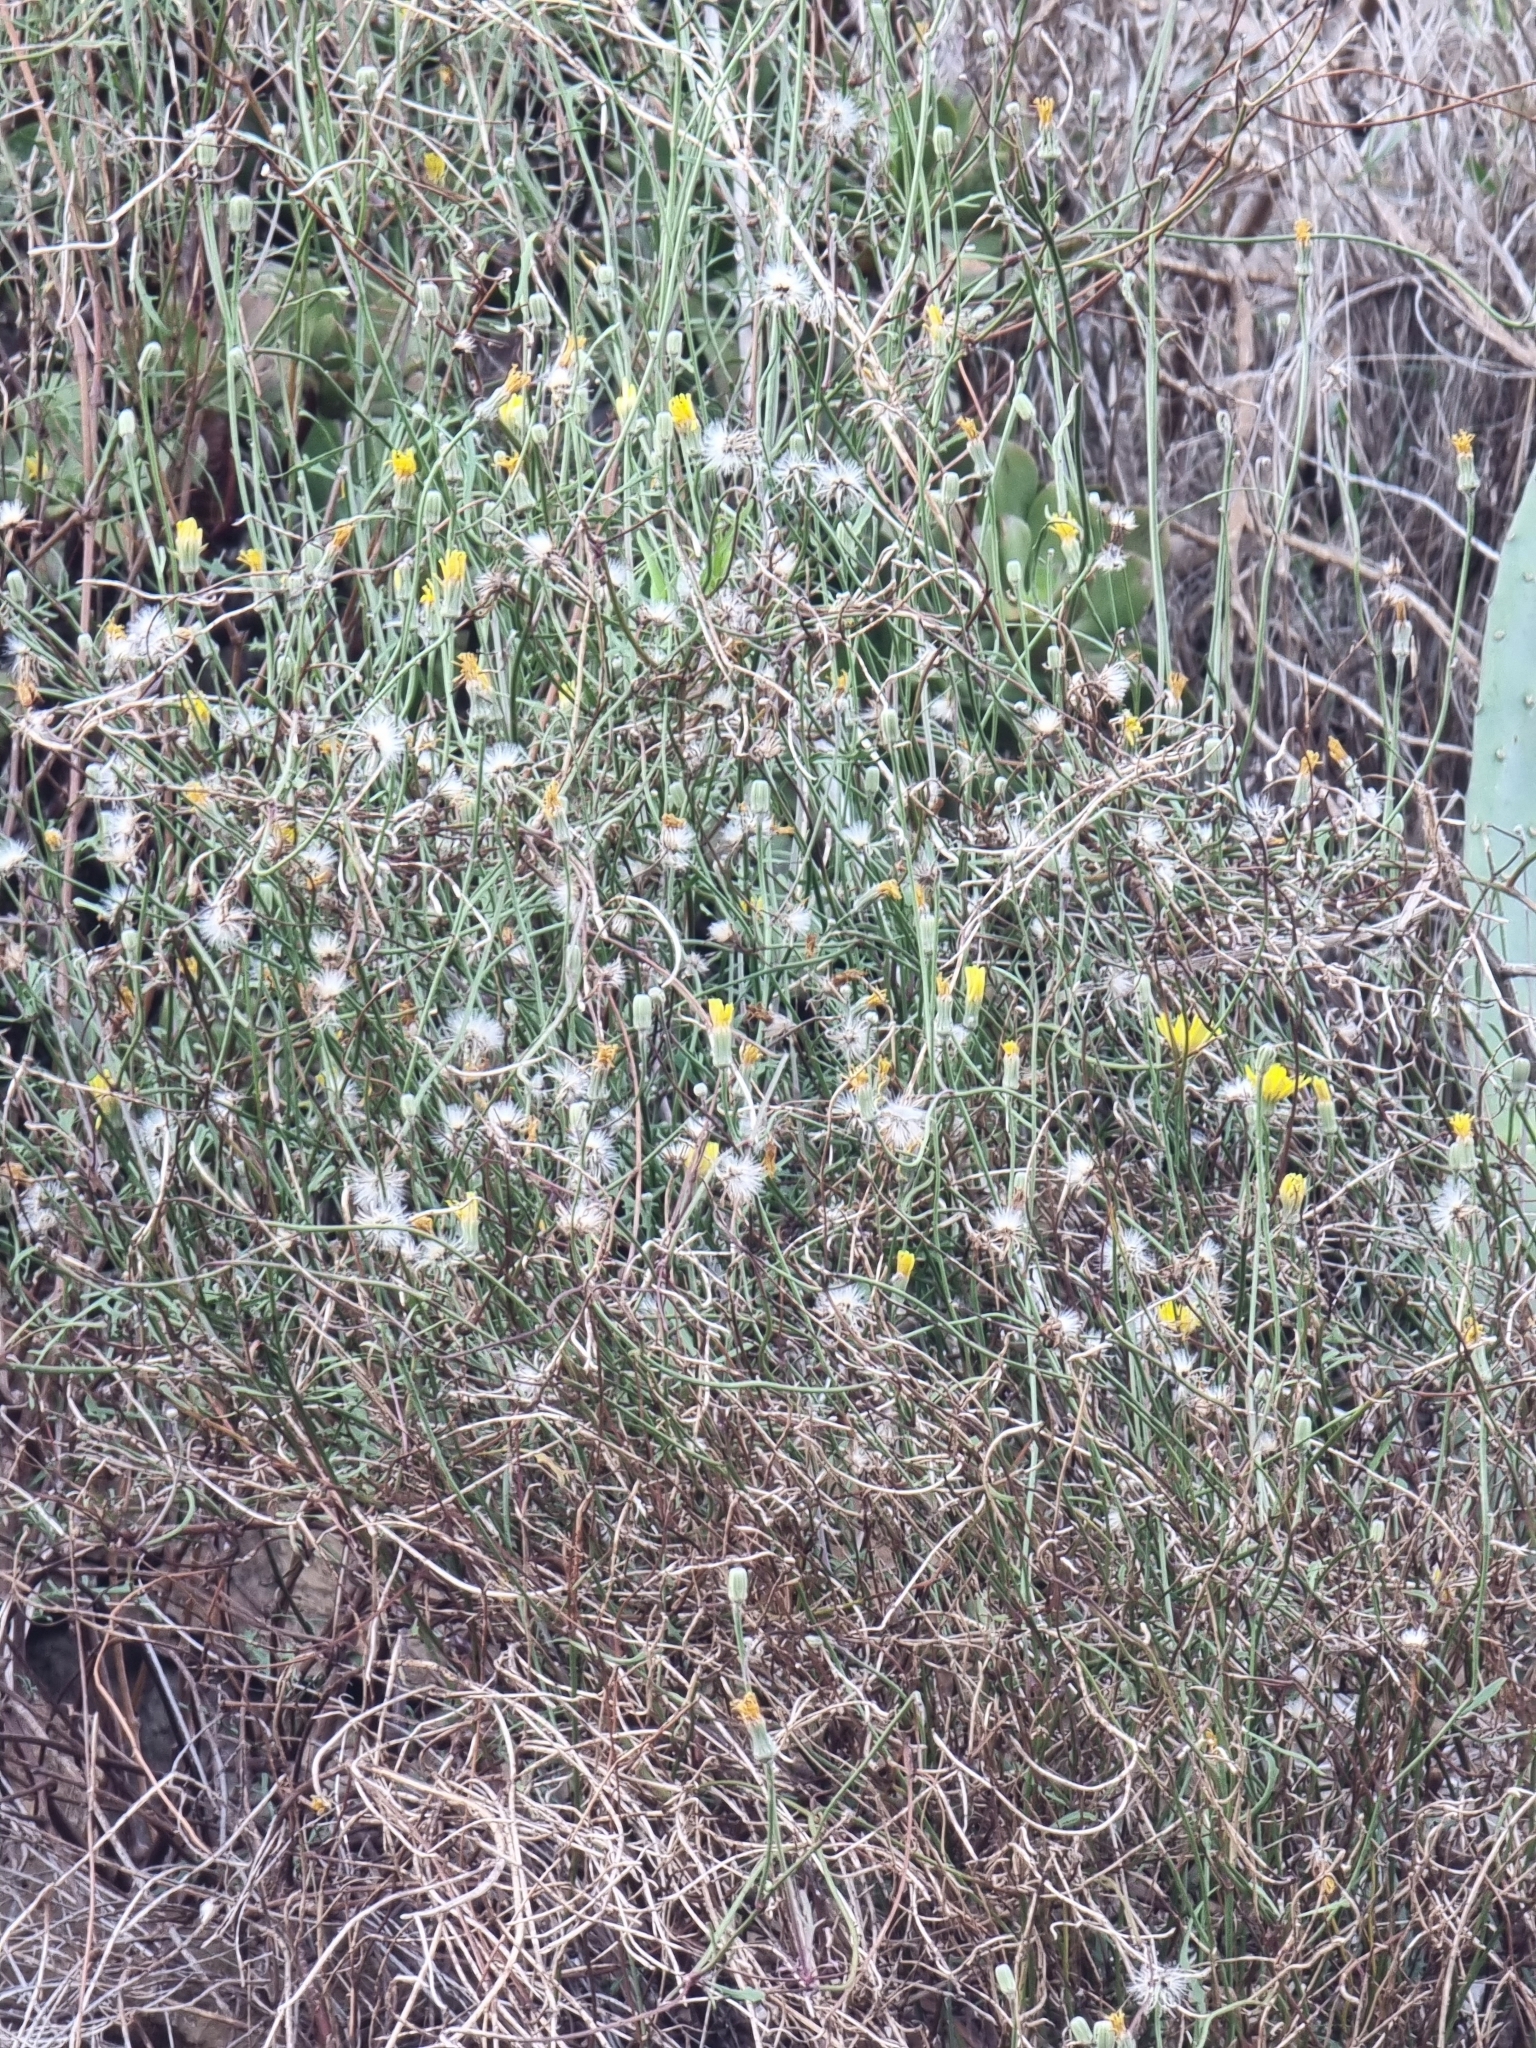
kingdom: Plantae
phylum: Tracheophyta
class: Magnoliopsida
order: Asterales
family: Asteraceae
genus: Tolpis
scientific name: Tolpis succulenta
